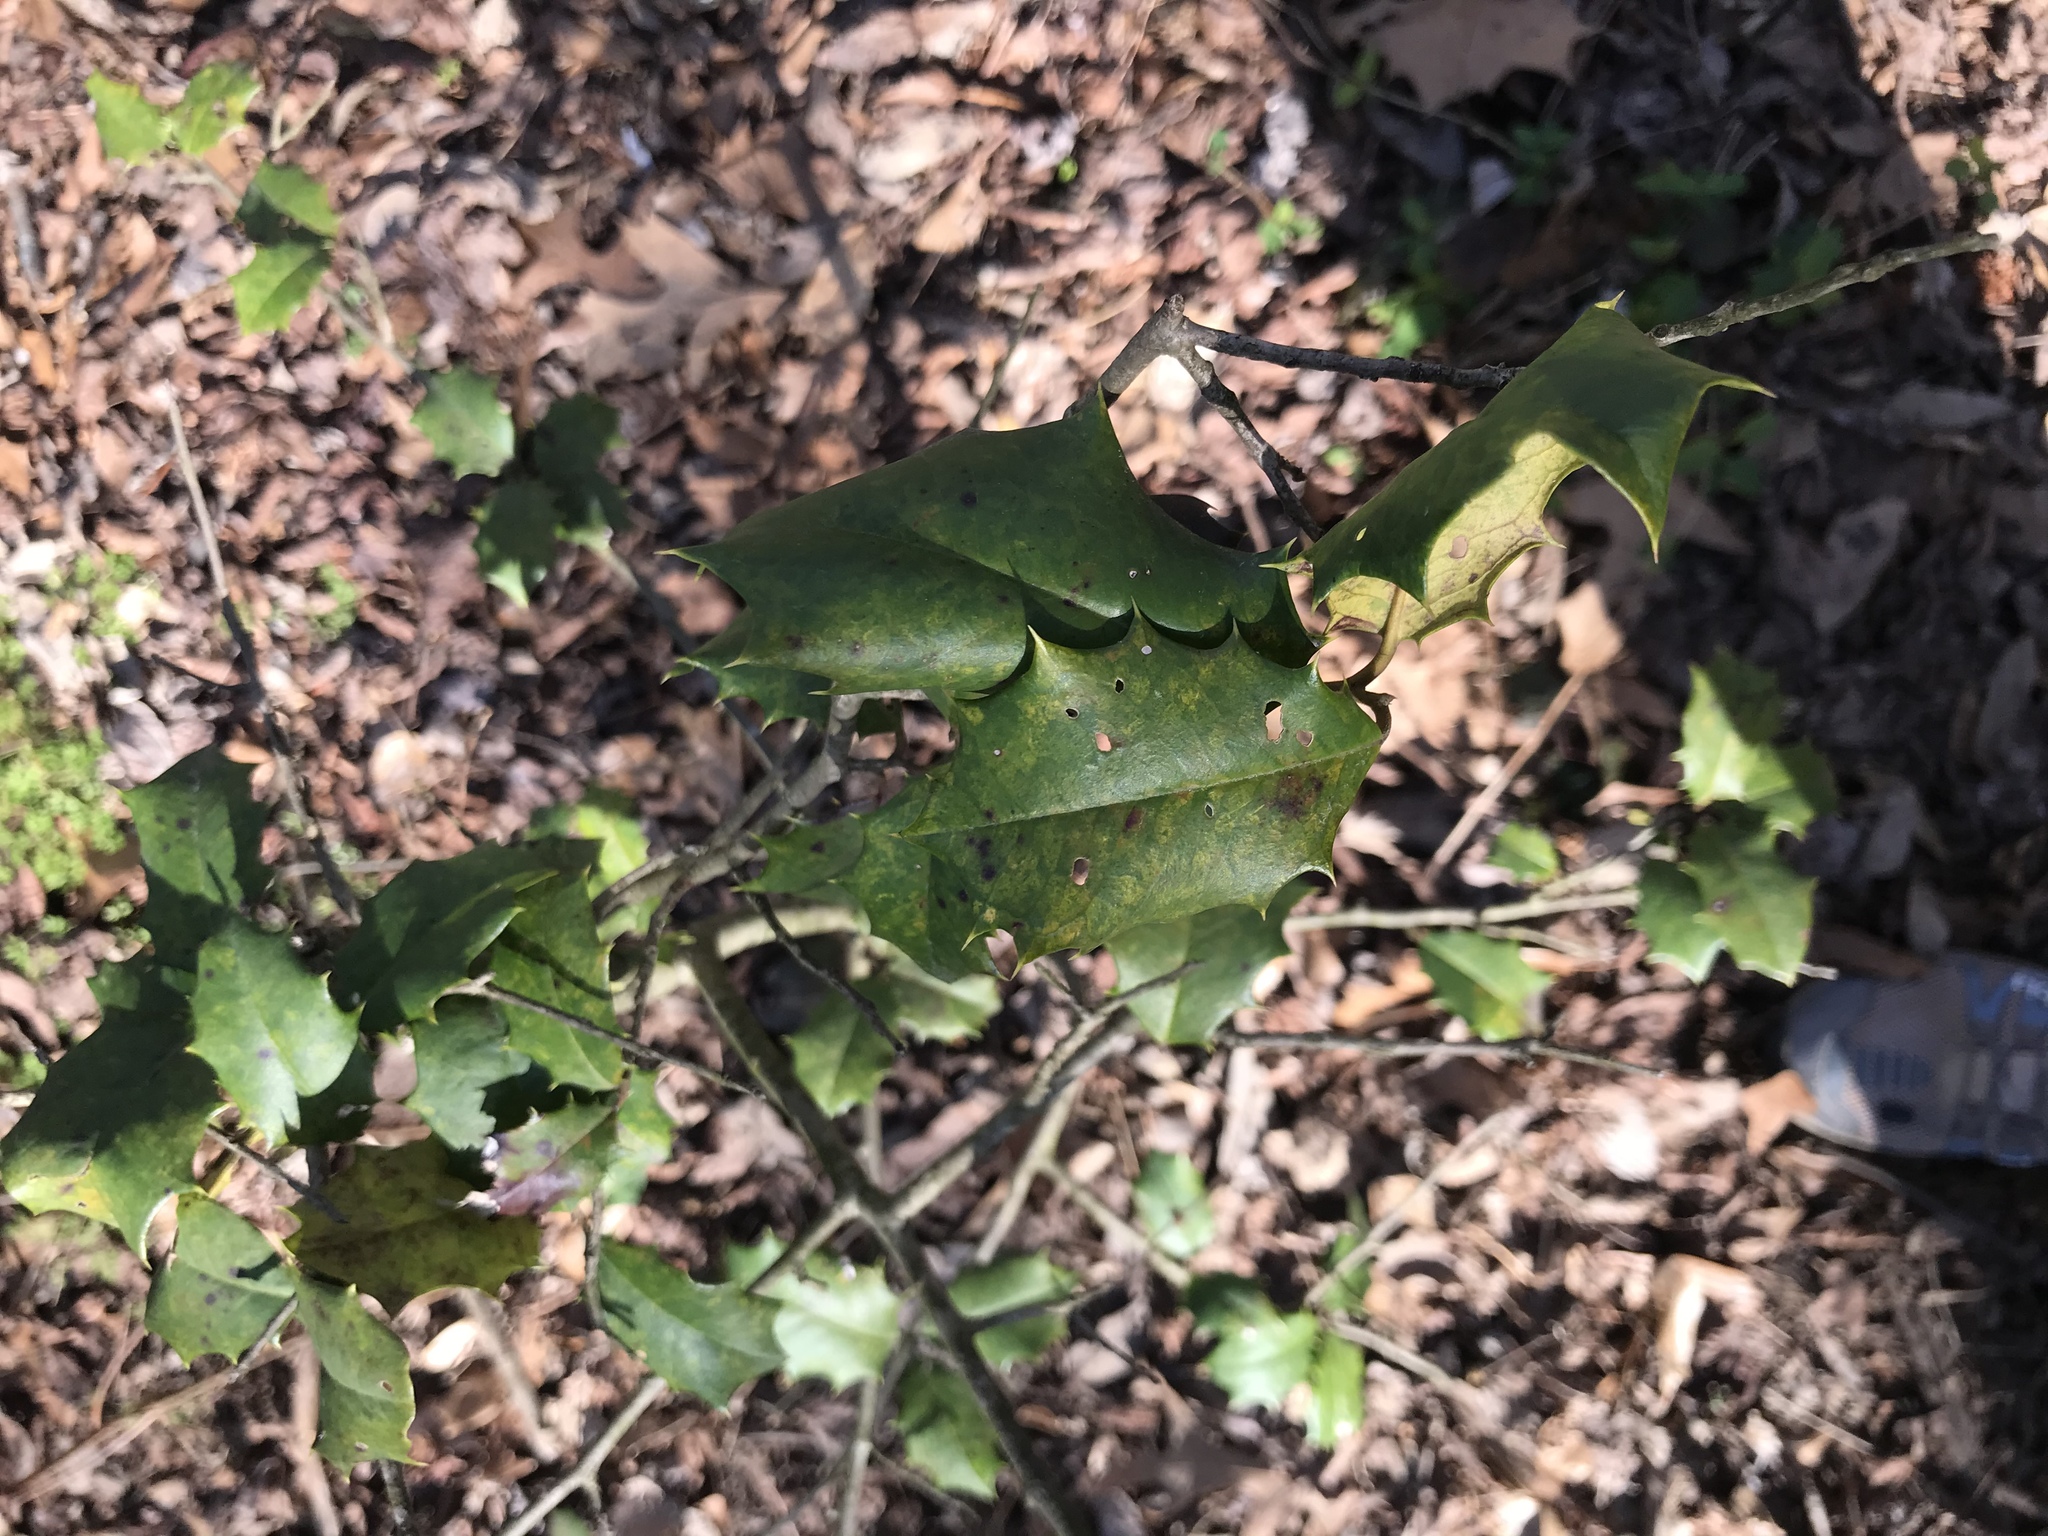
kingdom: Plantae
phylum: Tracheophyta
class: Magnoliopsida
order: Aquifoliales
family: Aquifoliaceae
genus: Ilex
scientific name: Ilex opaca
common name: American holly
